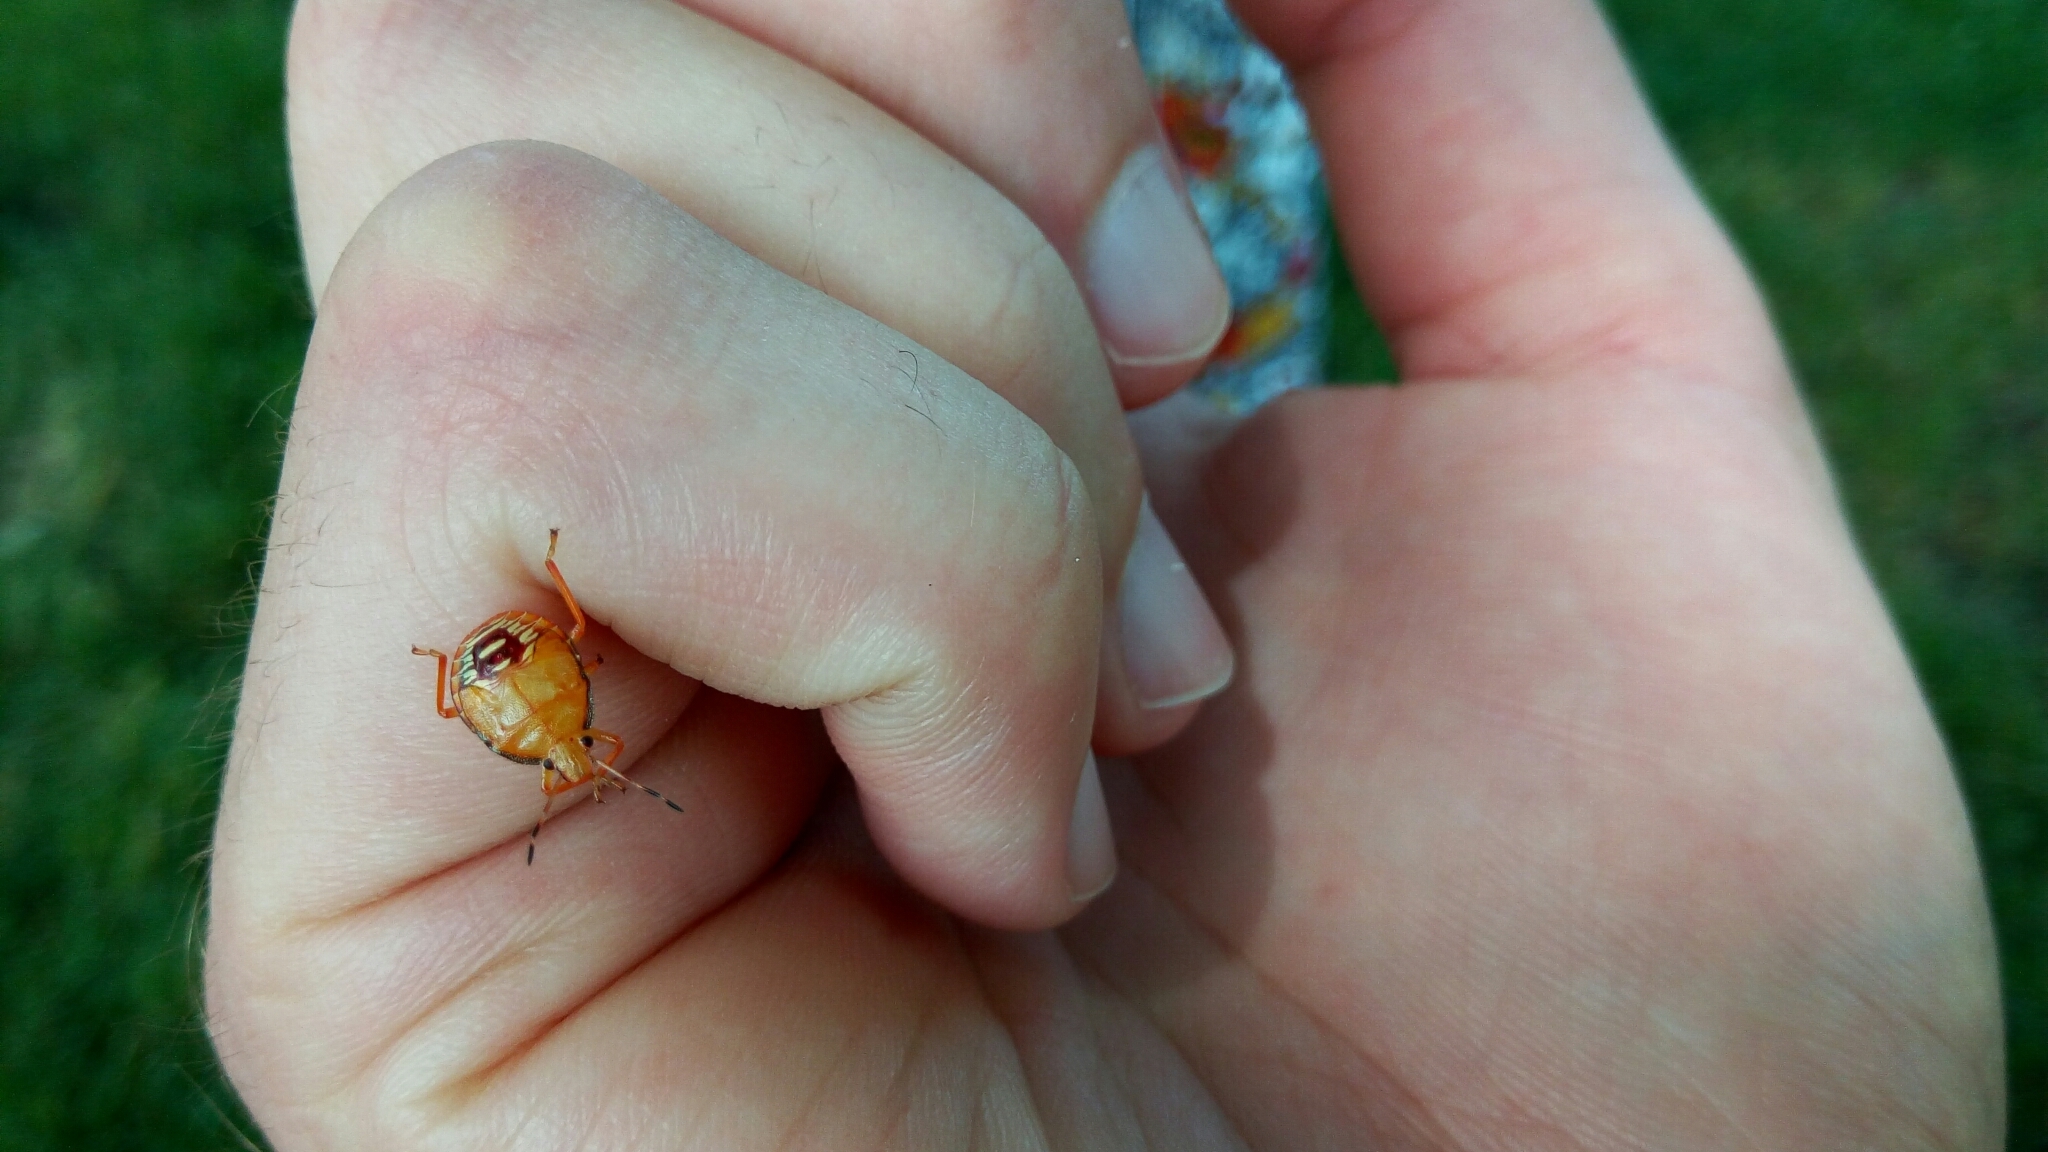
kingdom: Animalia
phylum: Arthropoda
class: Insecta
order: Hemiptera
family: Pentatomidae
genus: Podisus
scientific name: Podisus maculiventris
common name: Spined soldier bug
